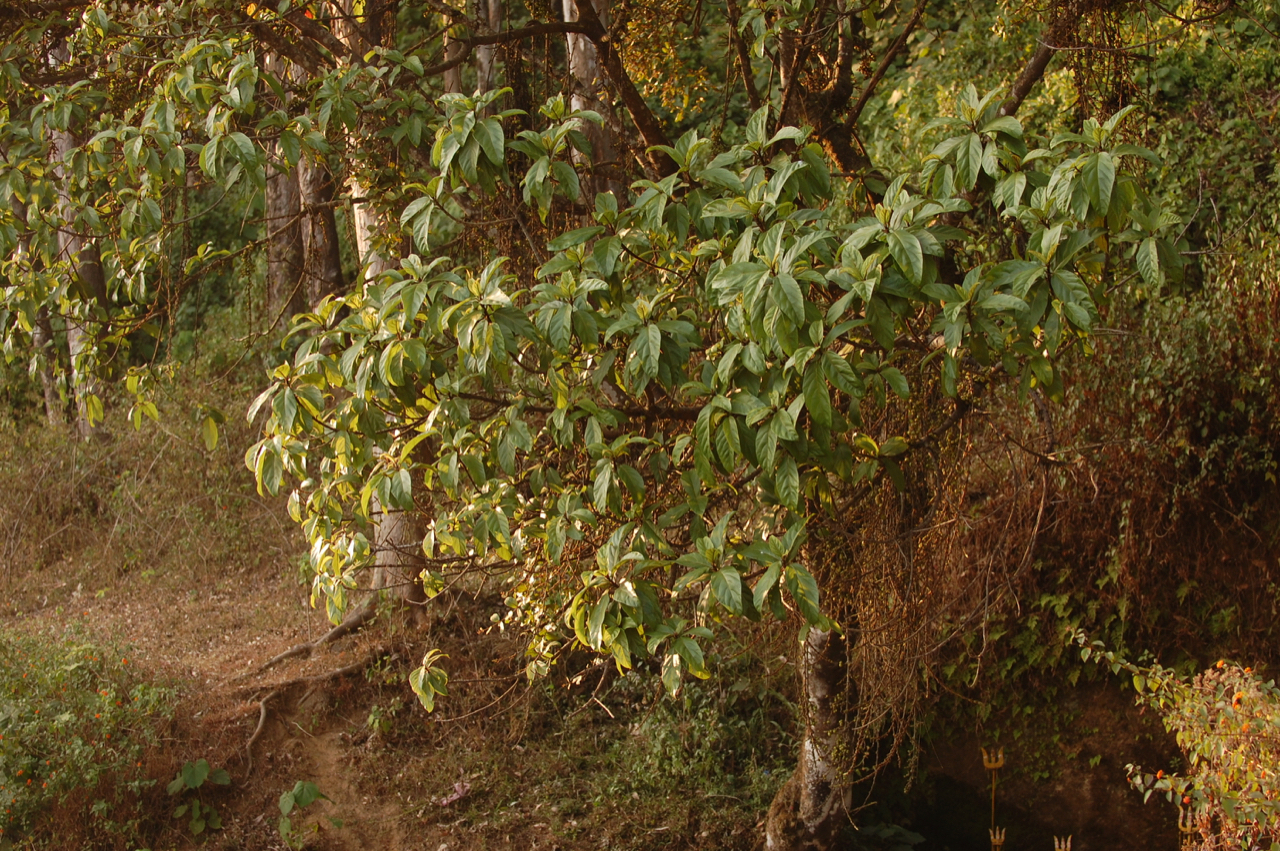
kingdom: Plantae
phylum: Tracheophyta
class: Magnoliopsida
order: Rosales
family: Moraceae
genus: Ficus
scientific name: Ficus hispida
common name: Hairy fig
